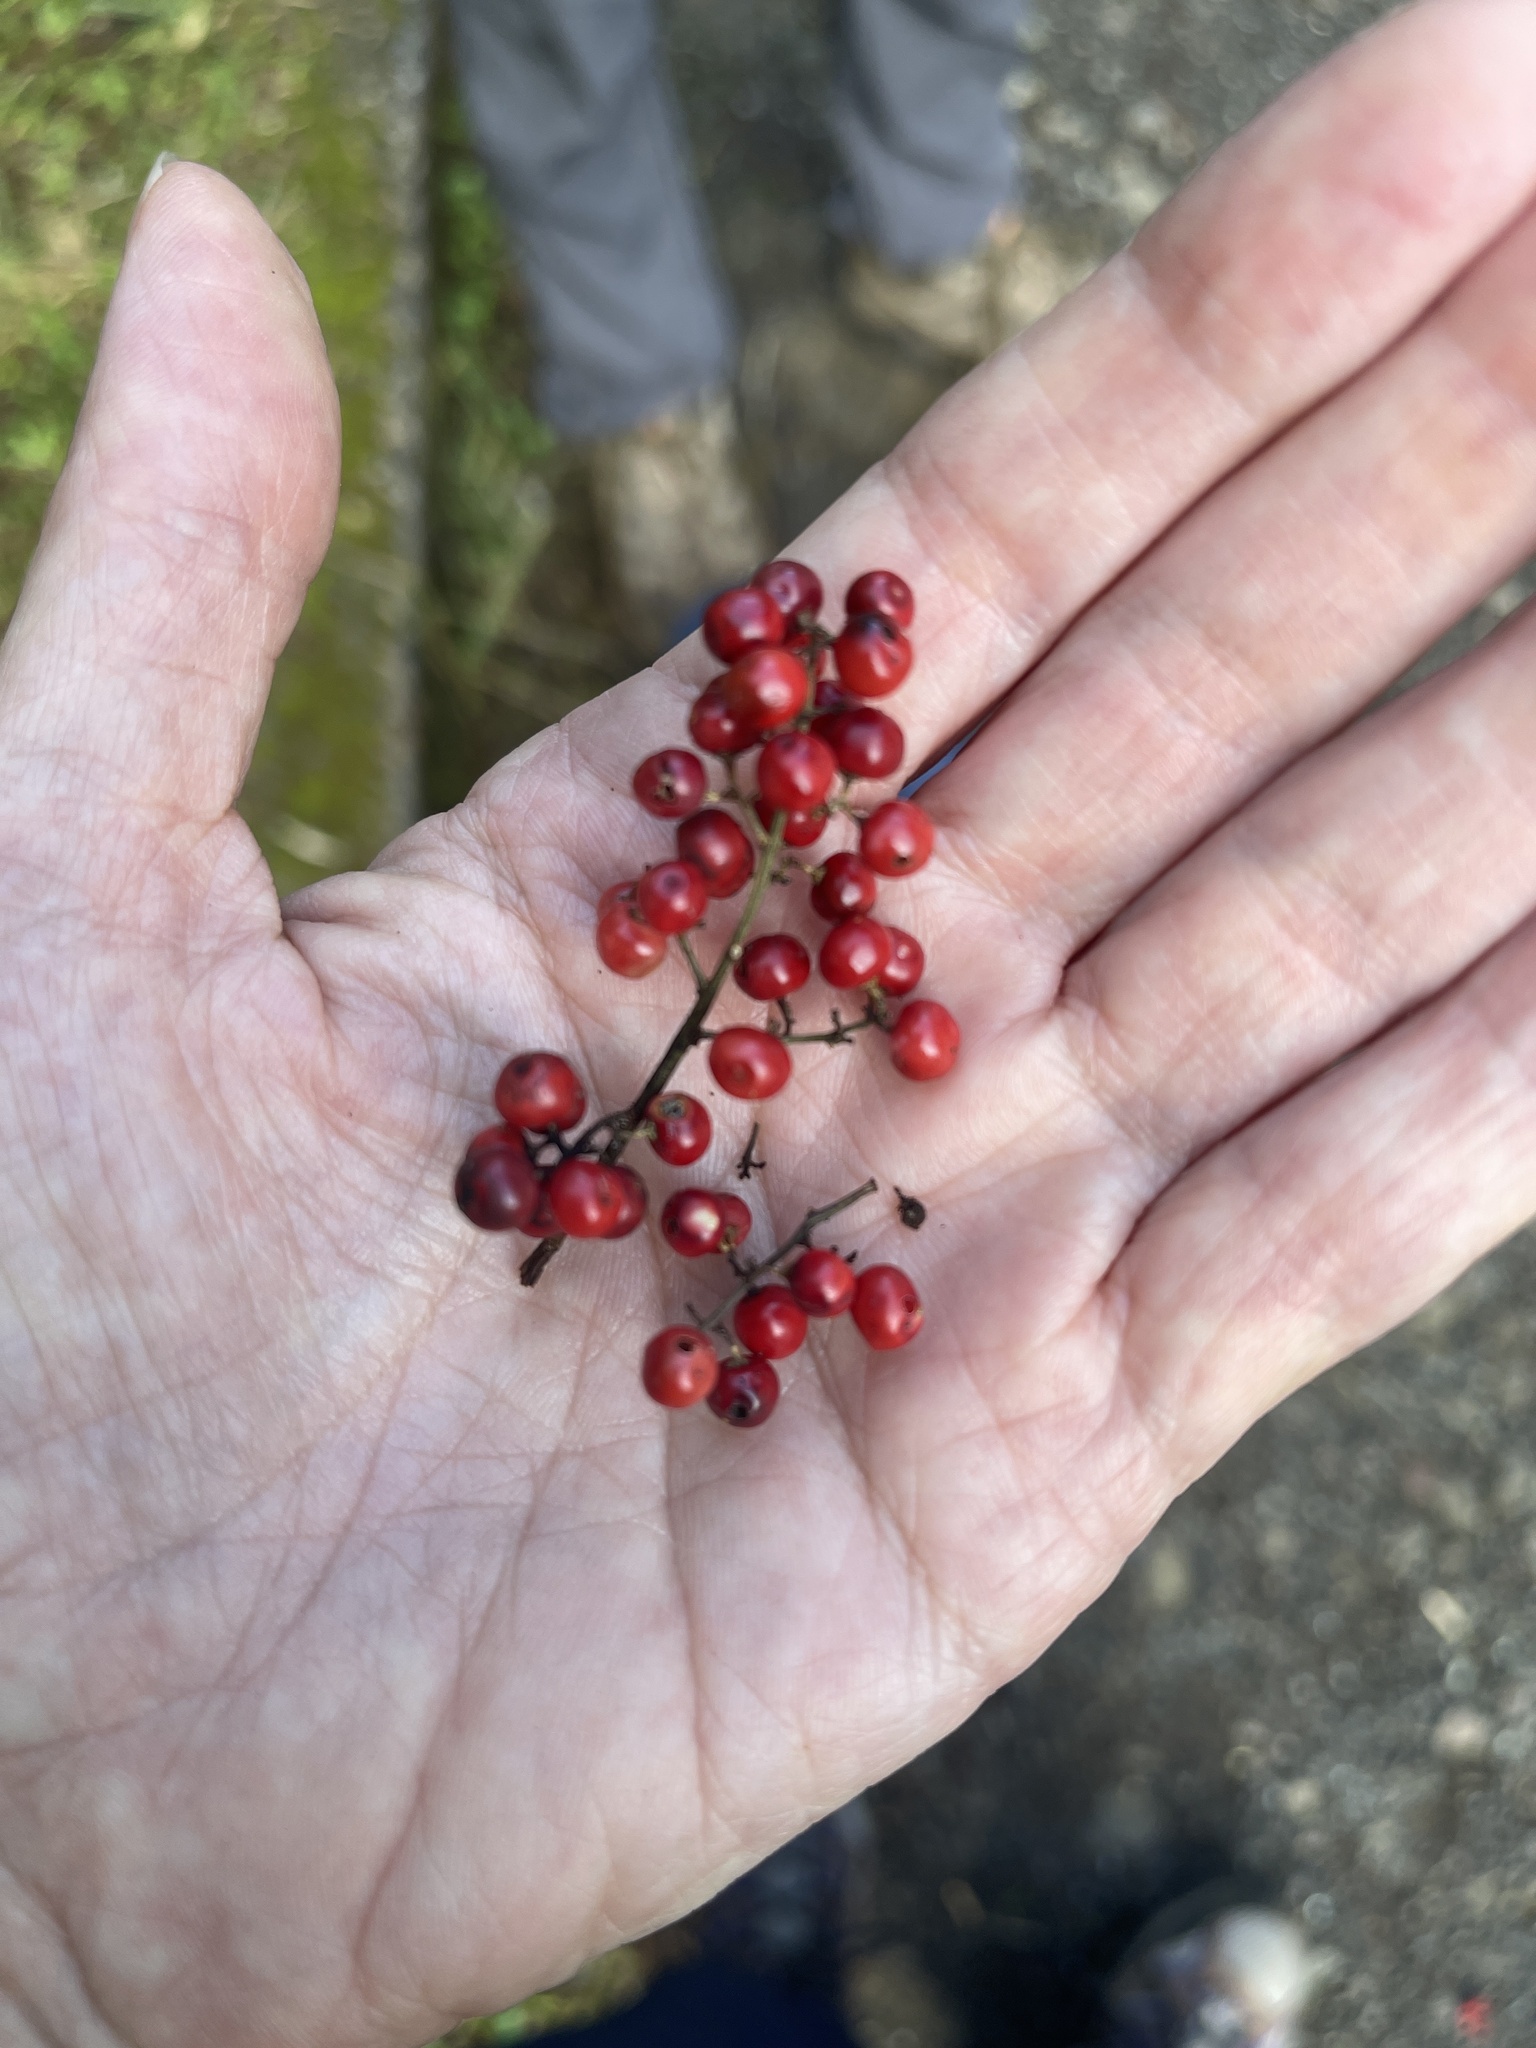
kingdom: Plantae
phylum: Tracheophyta
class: Magnoliopsida
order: Sapindales
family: Anacardiaceae
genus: Schinus
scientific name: Schinus terebinthifolia
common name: Brazilian peppertree
